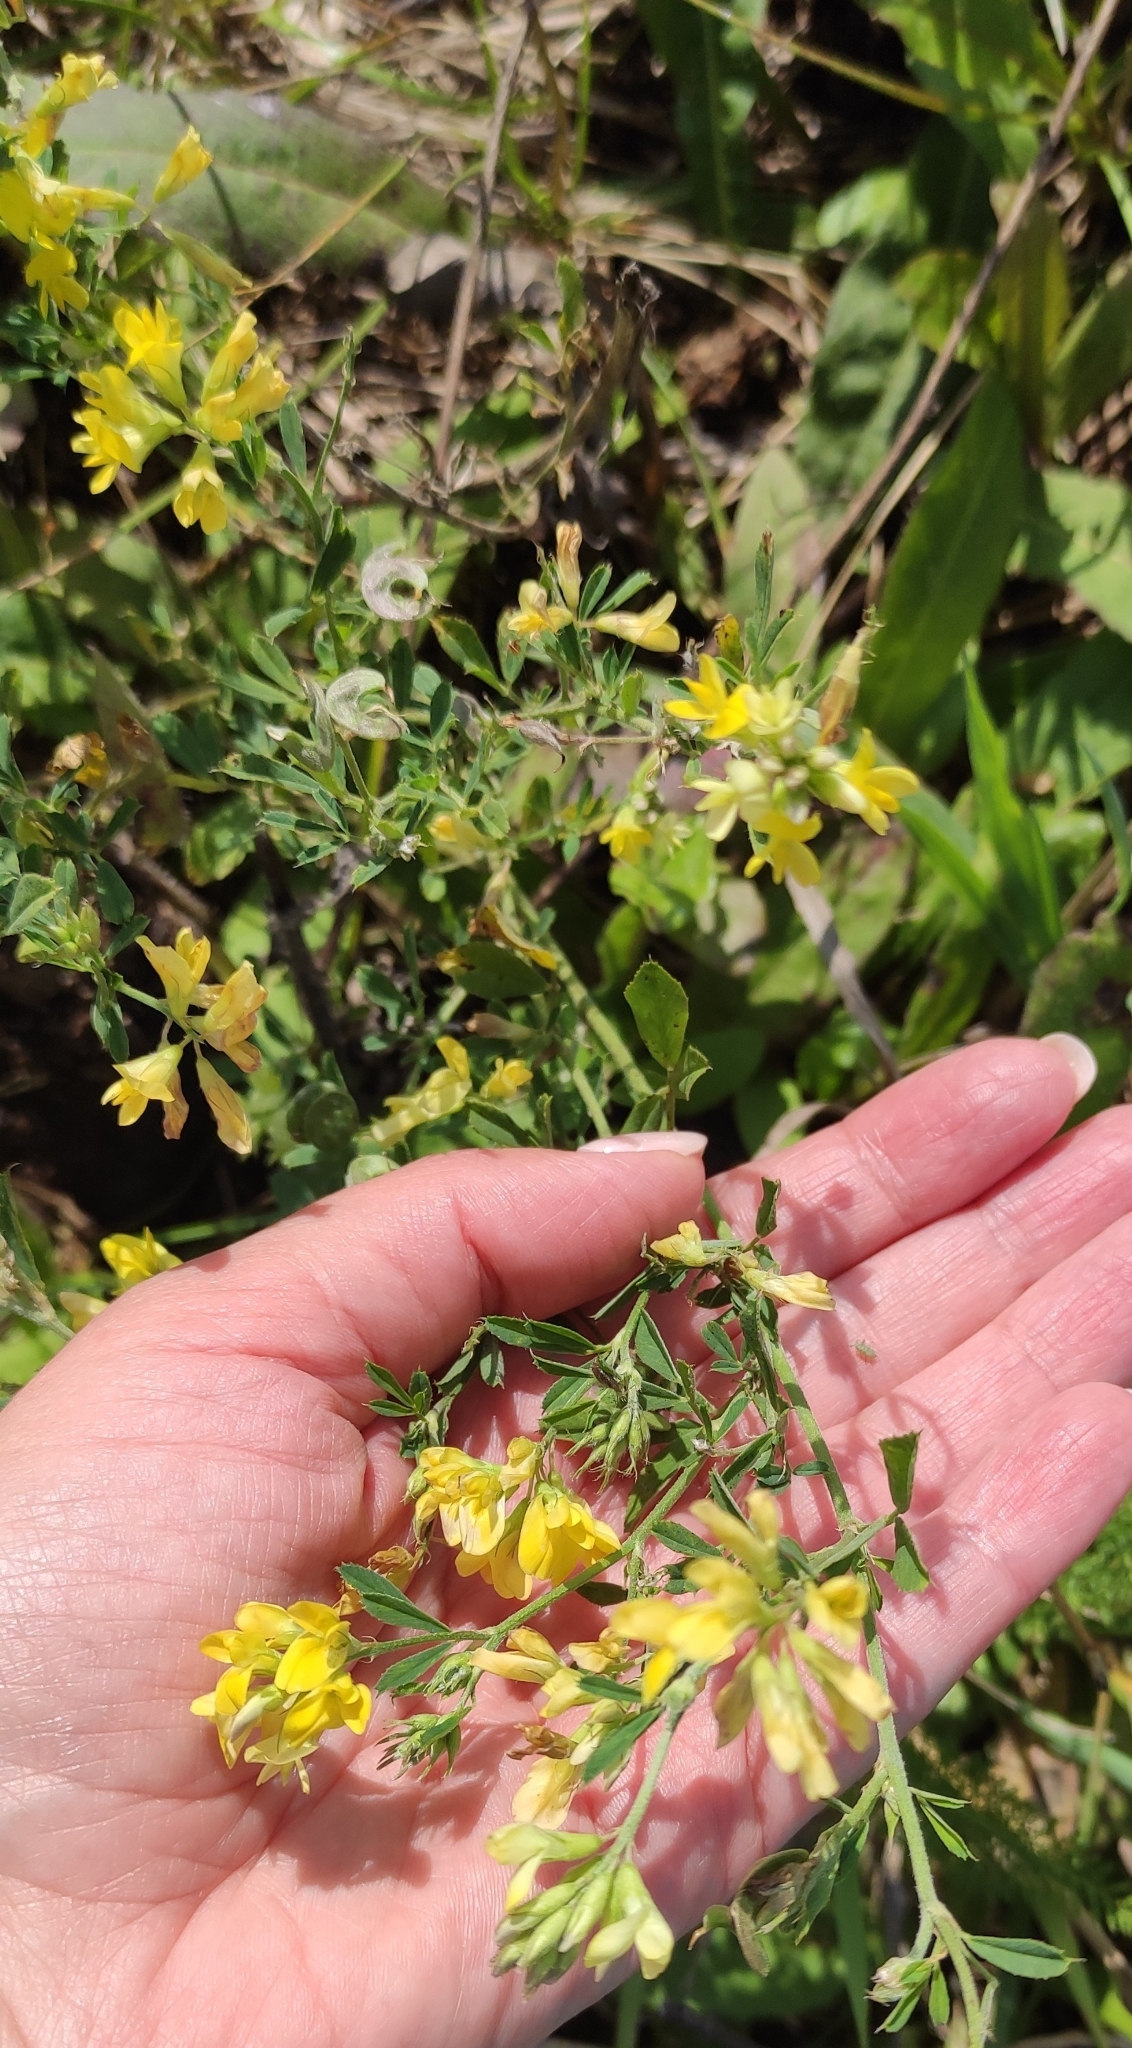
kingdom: Plantae
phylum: Tracheophyta
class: Magnoliopsida
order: Fabales
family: Fabaceae
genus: Medicago
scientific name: Medicago varia
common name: Sand lucerne
